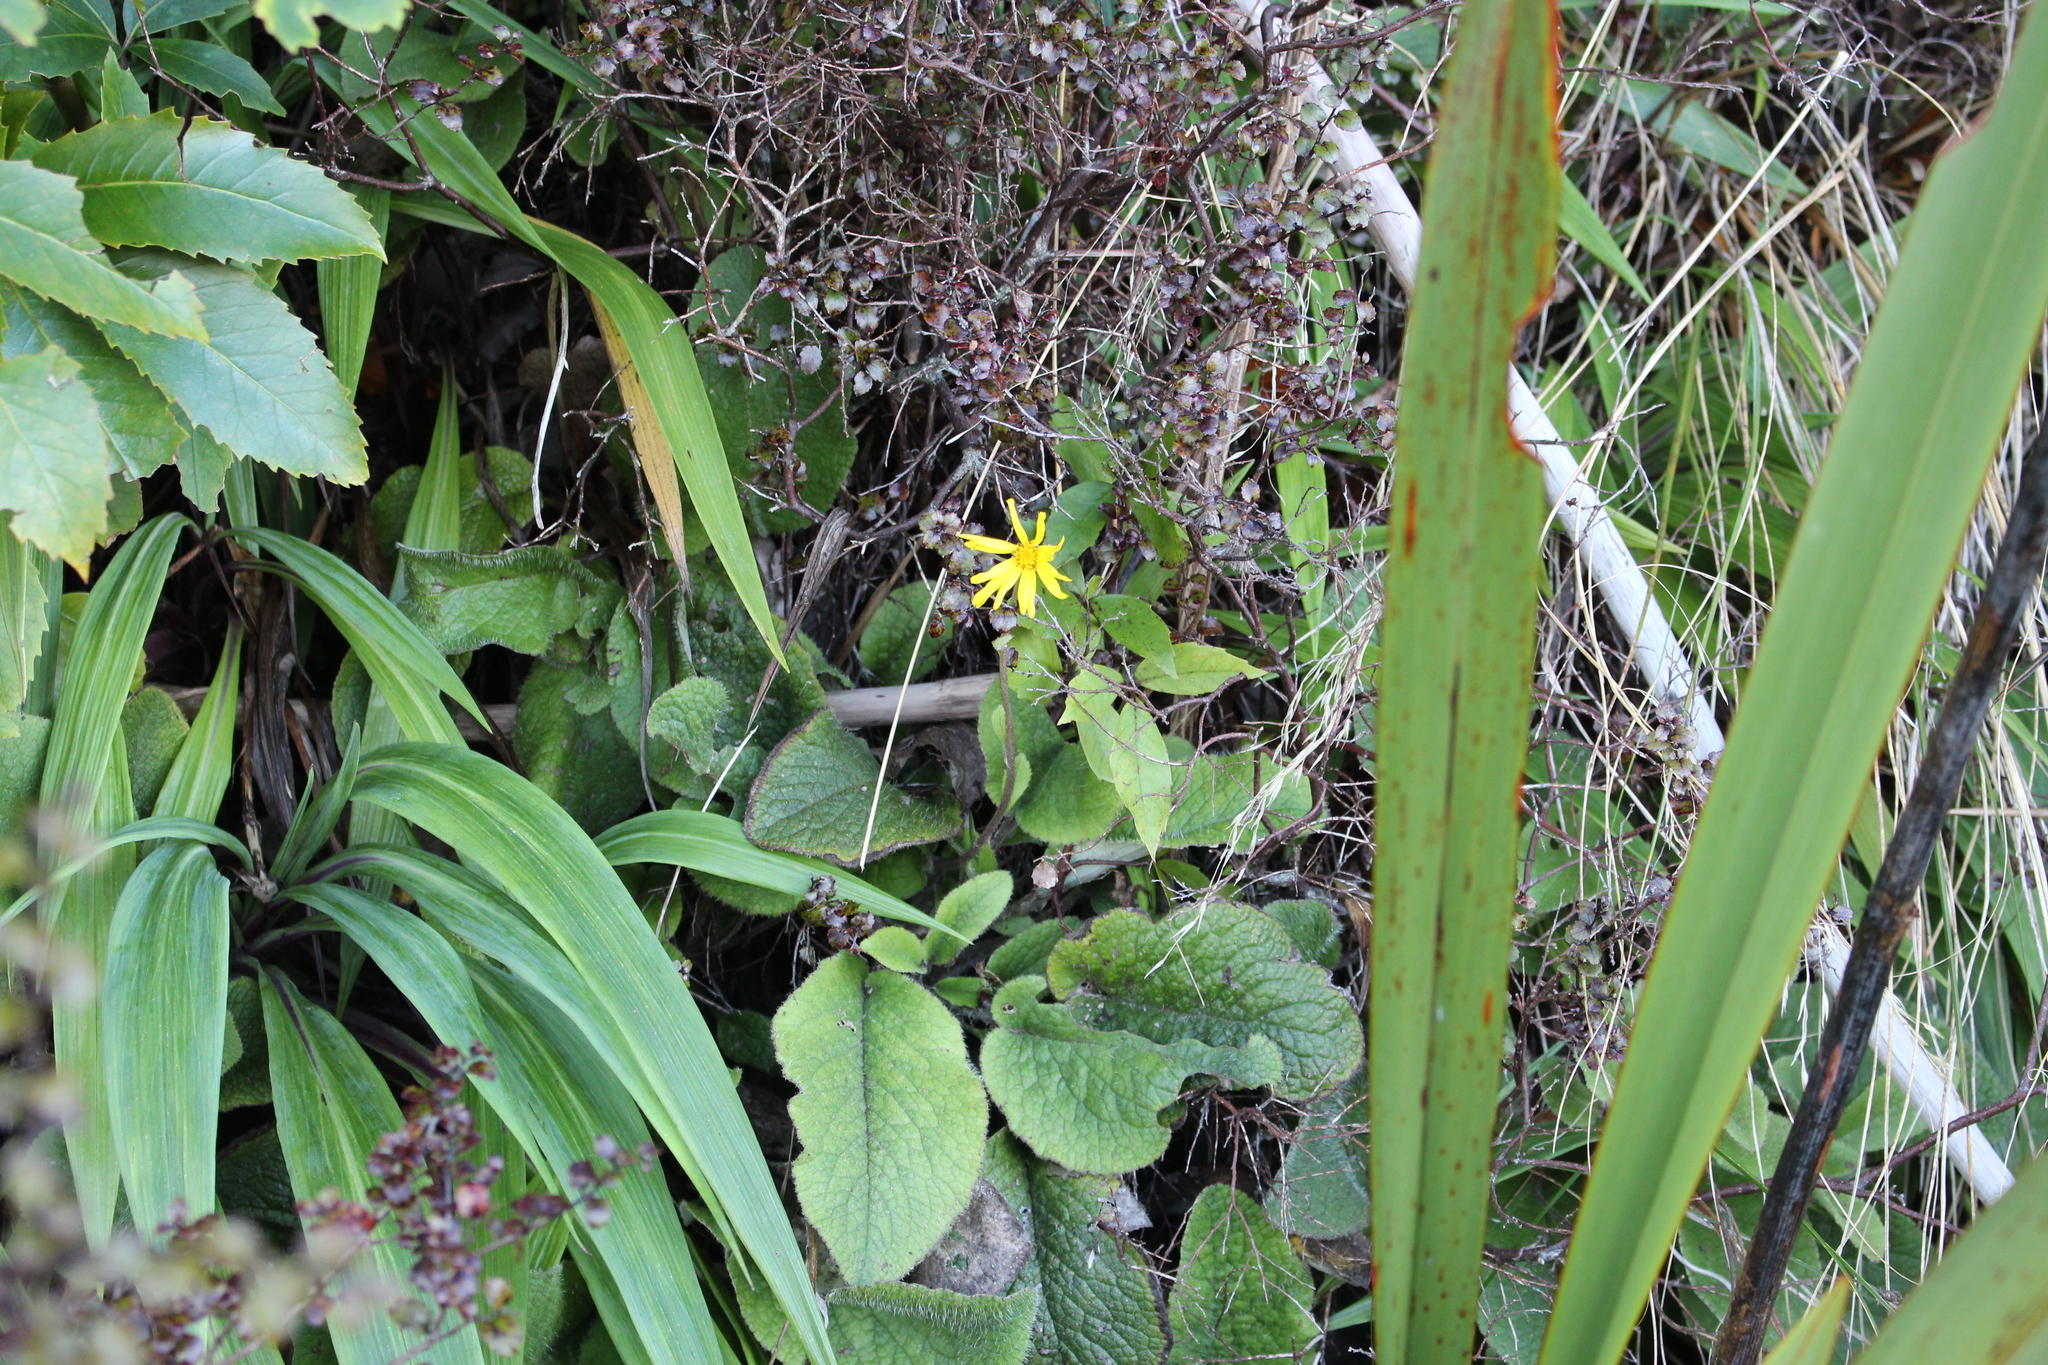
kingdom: Plantae
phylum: Tracheophyta
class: Magnoliopsida
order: Asterales
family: Asteraceae
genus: Brachyglottis
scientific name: Brachyglottis lagopus
